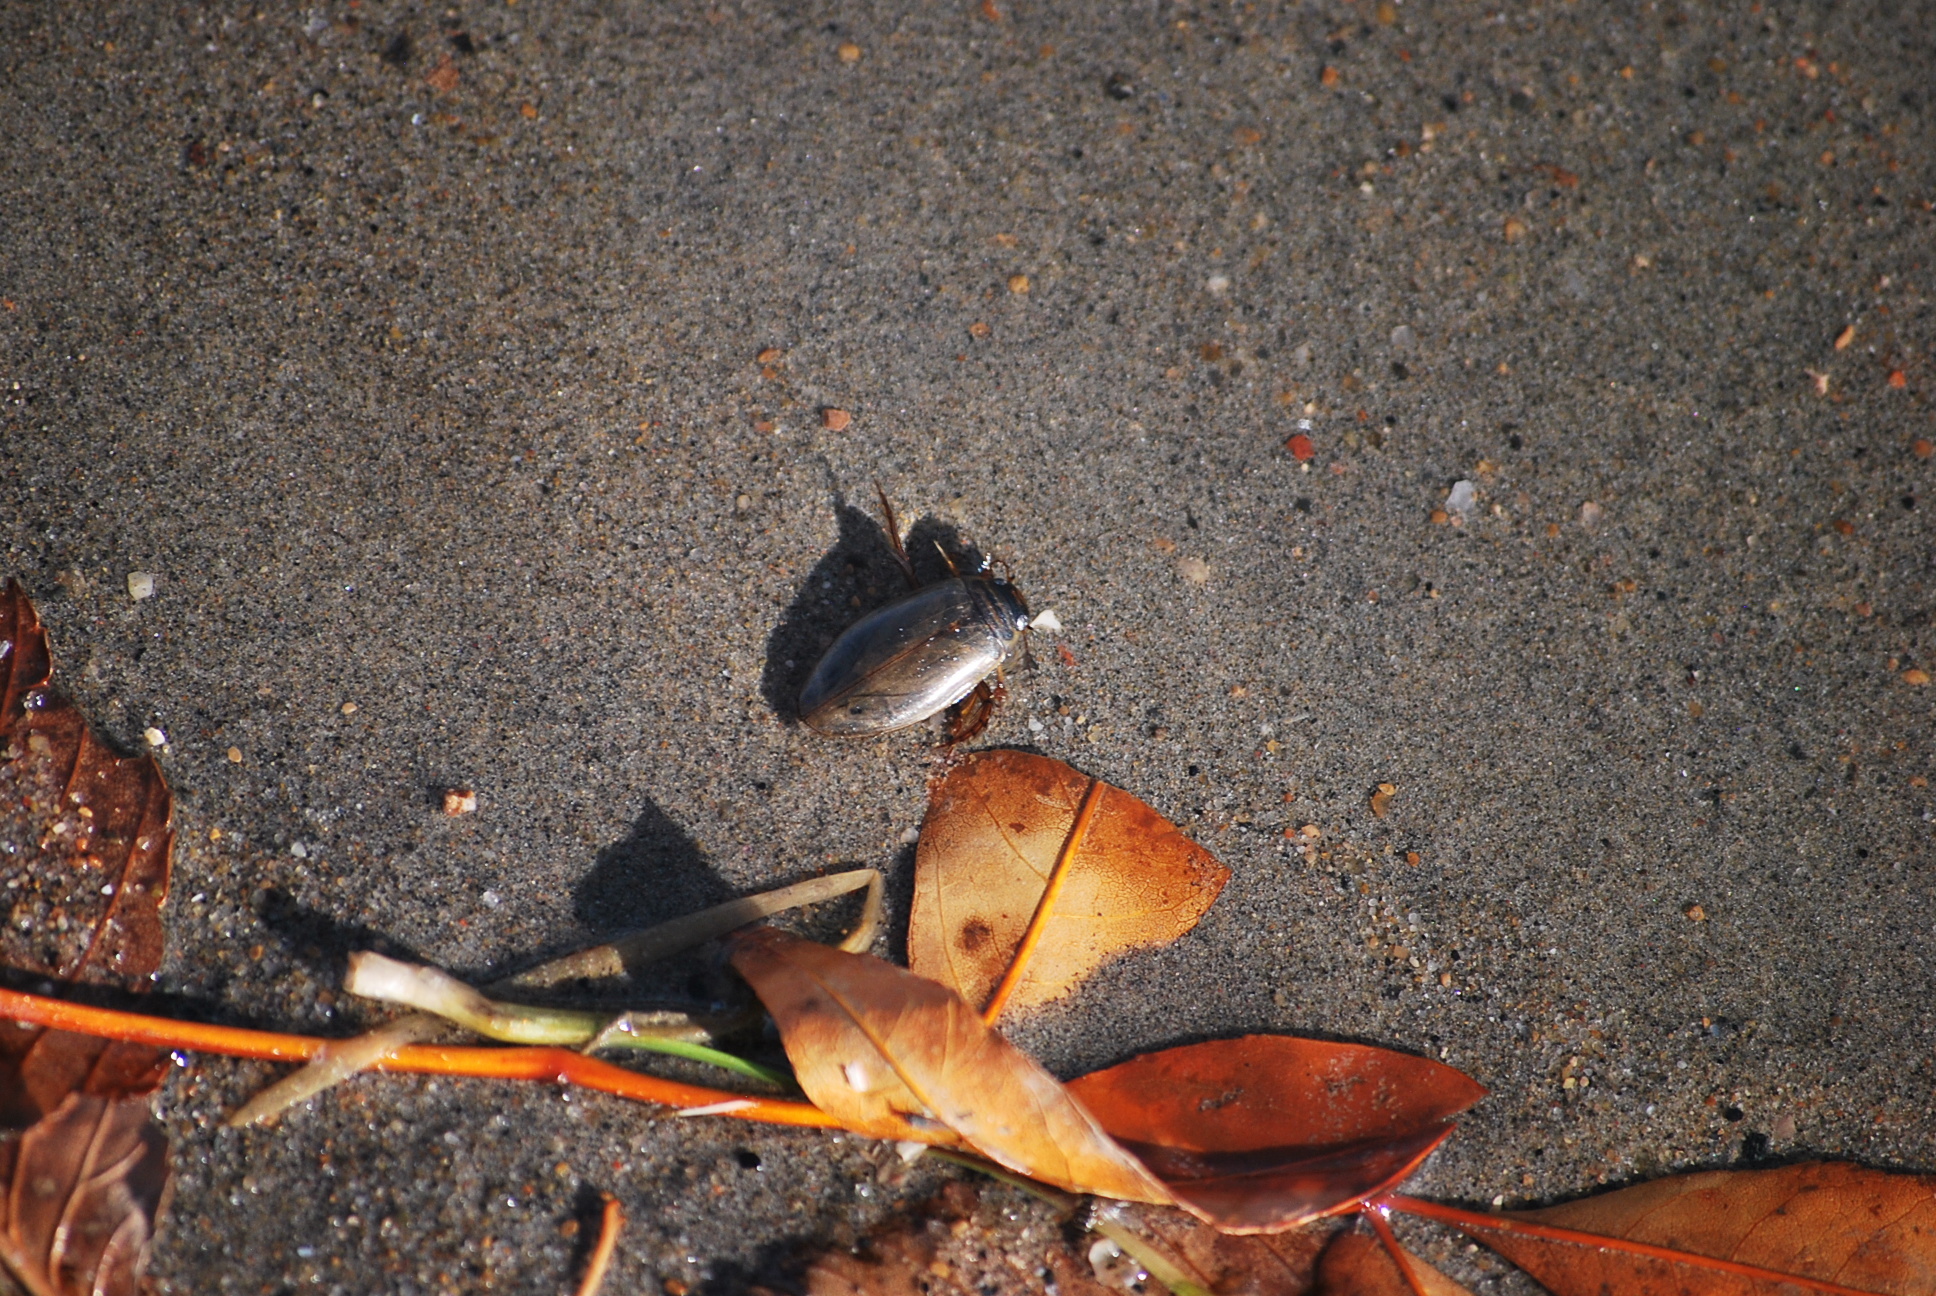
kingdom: Animalia
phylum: Arthropoda
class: Insecta
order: Coleoptera
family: Dytiscidae
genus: Colymbetes
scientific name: Colymbetes
